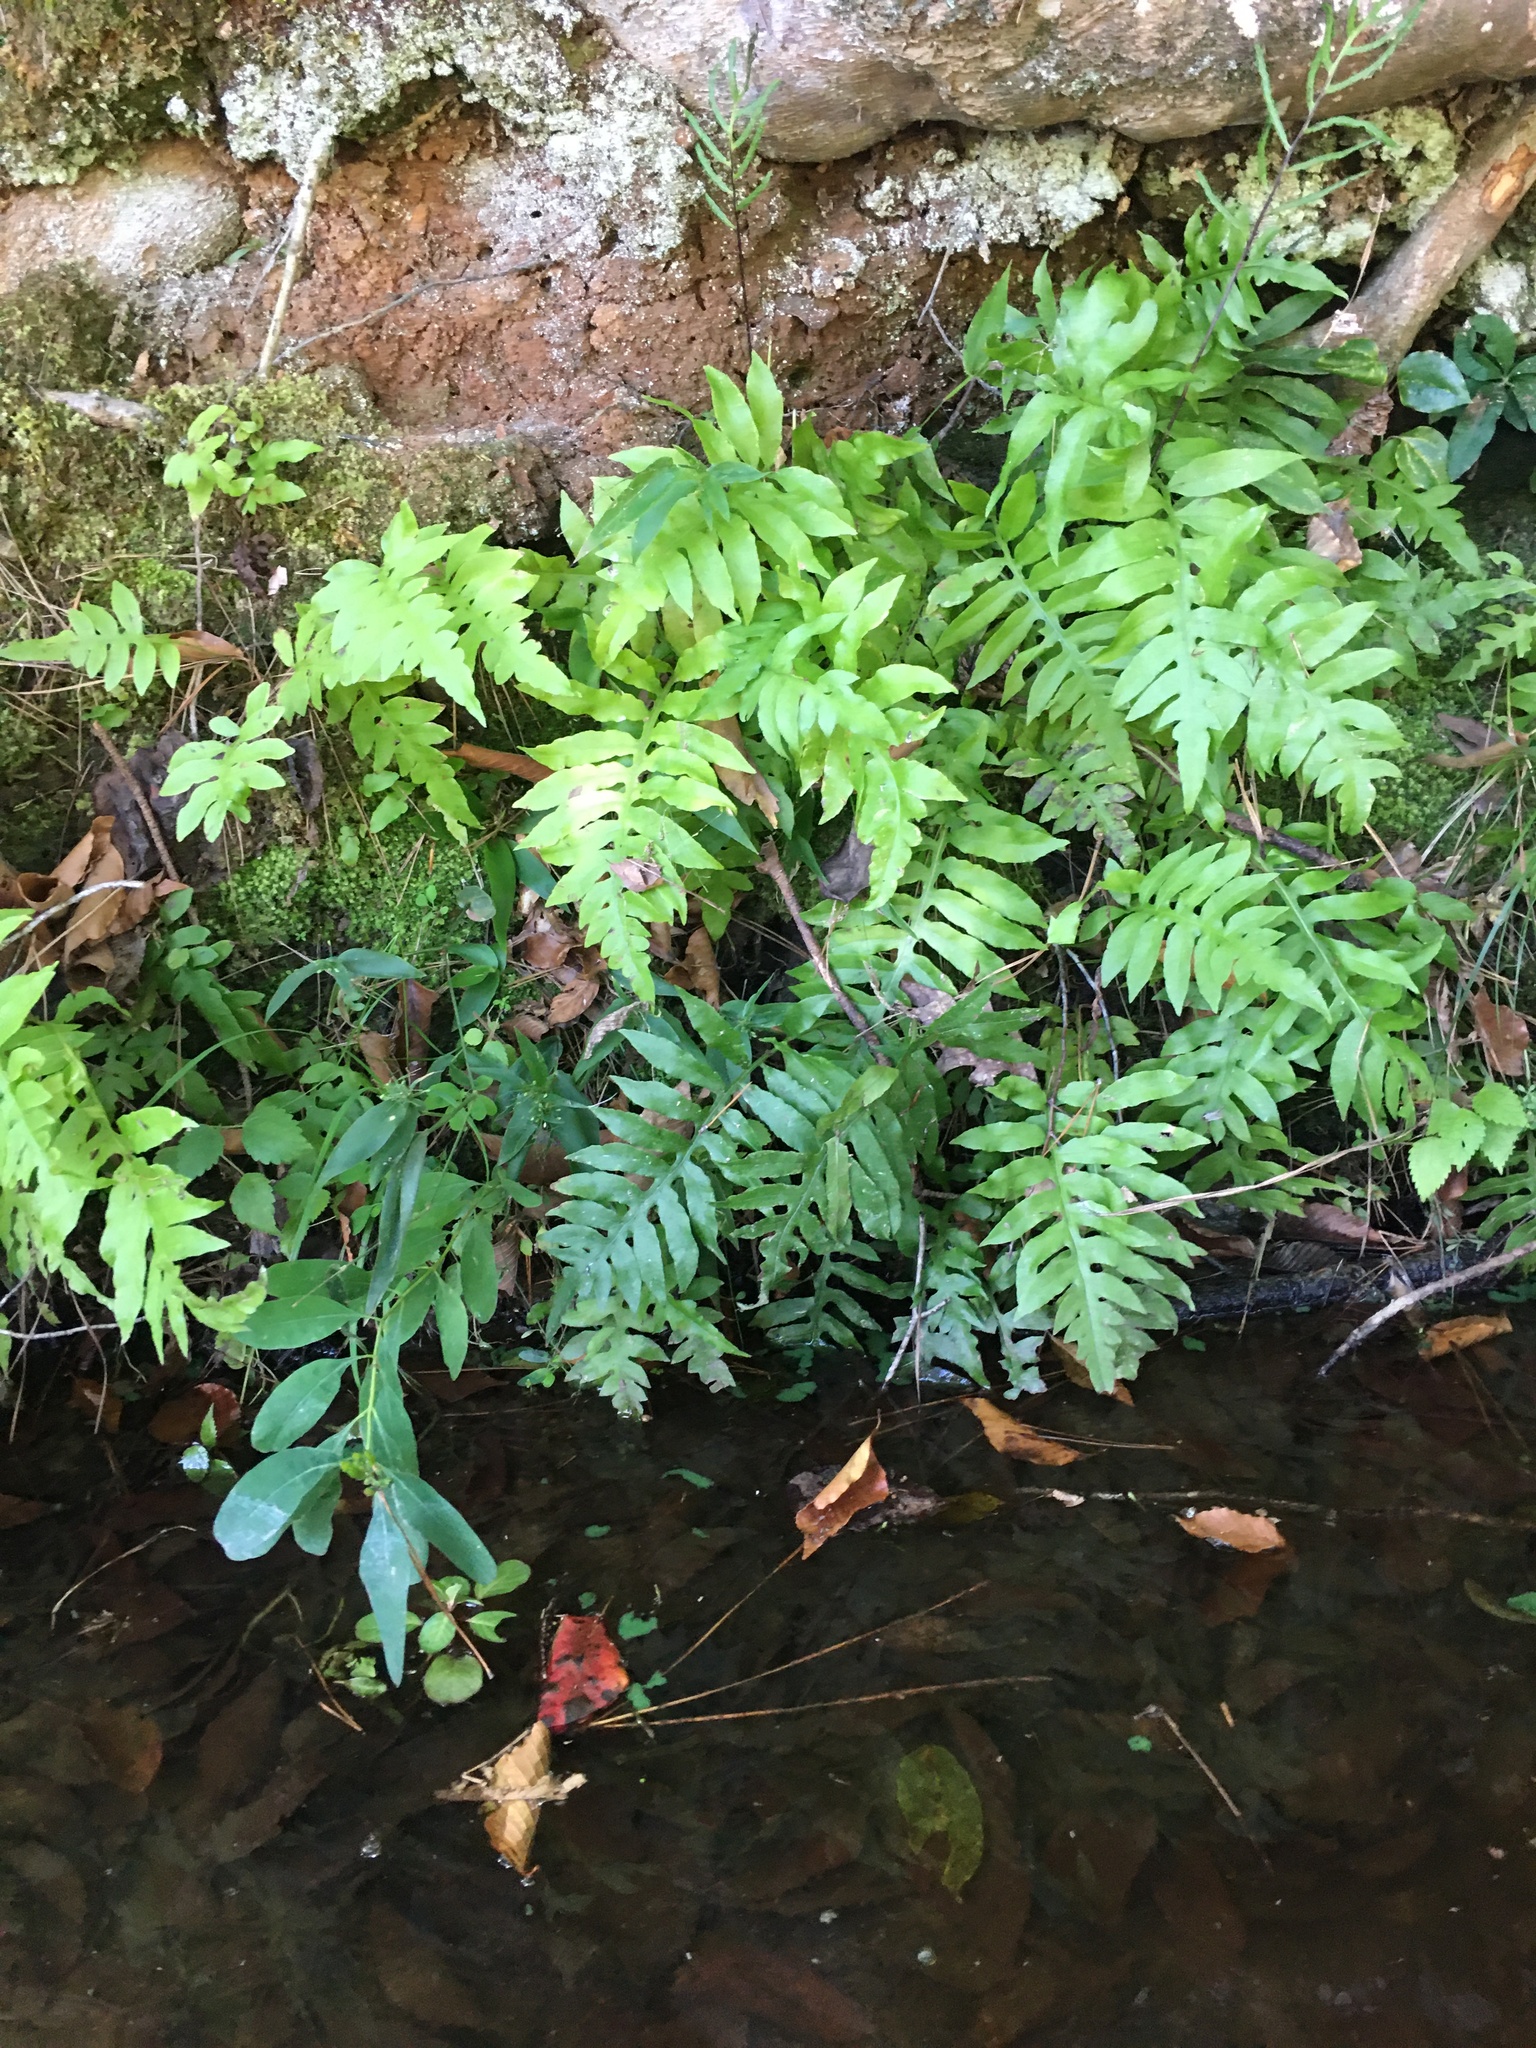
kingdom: Plantae
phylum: Tracheophyta
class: Polypodiopsida
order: Polypodiales
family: Blechnaceae
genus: Lorinseria
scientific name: Lorinseria areolata
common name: Dwarf chain fern
